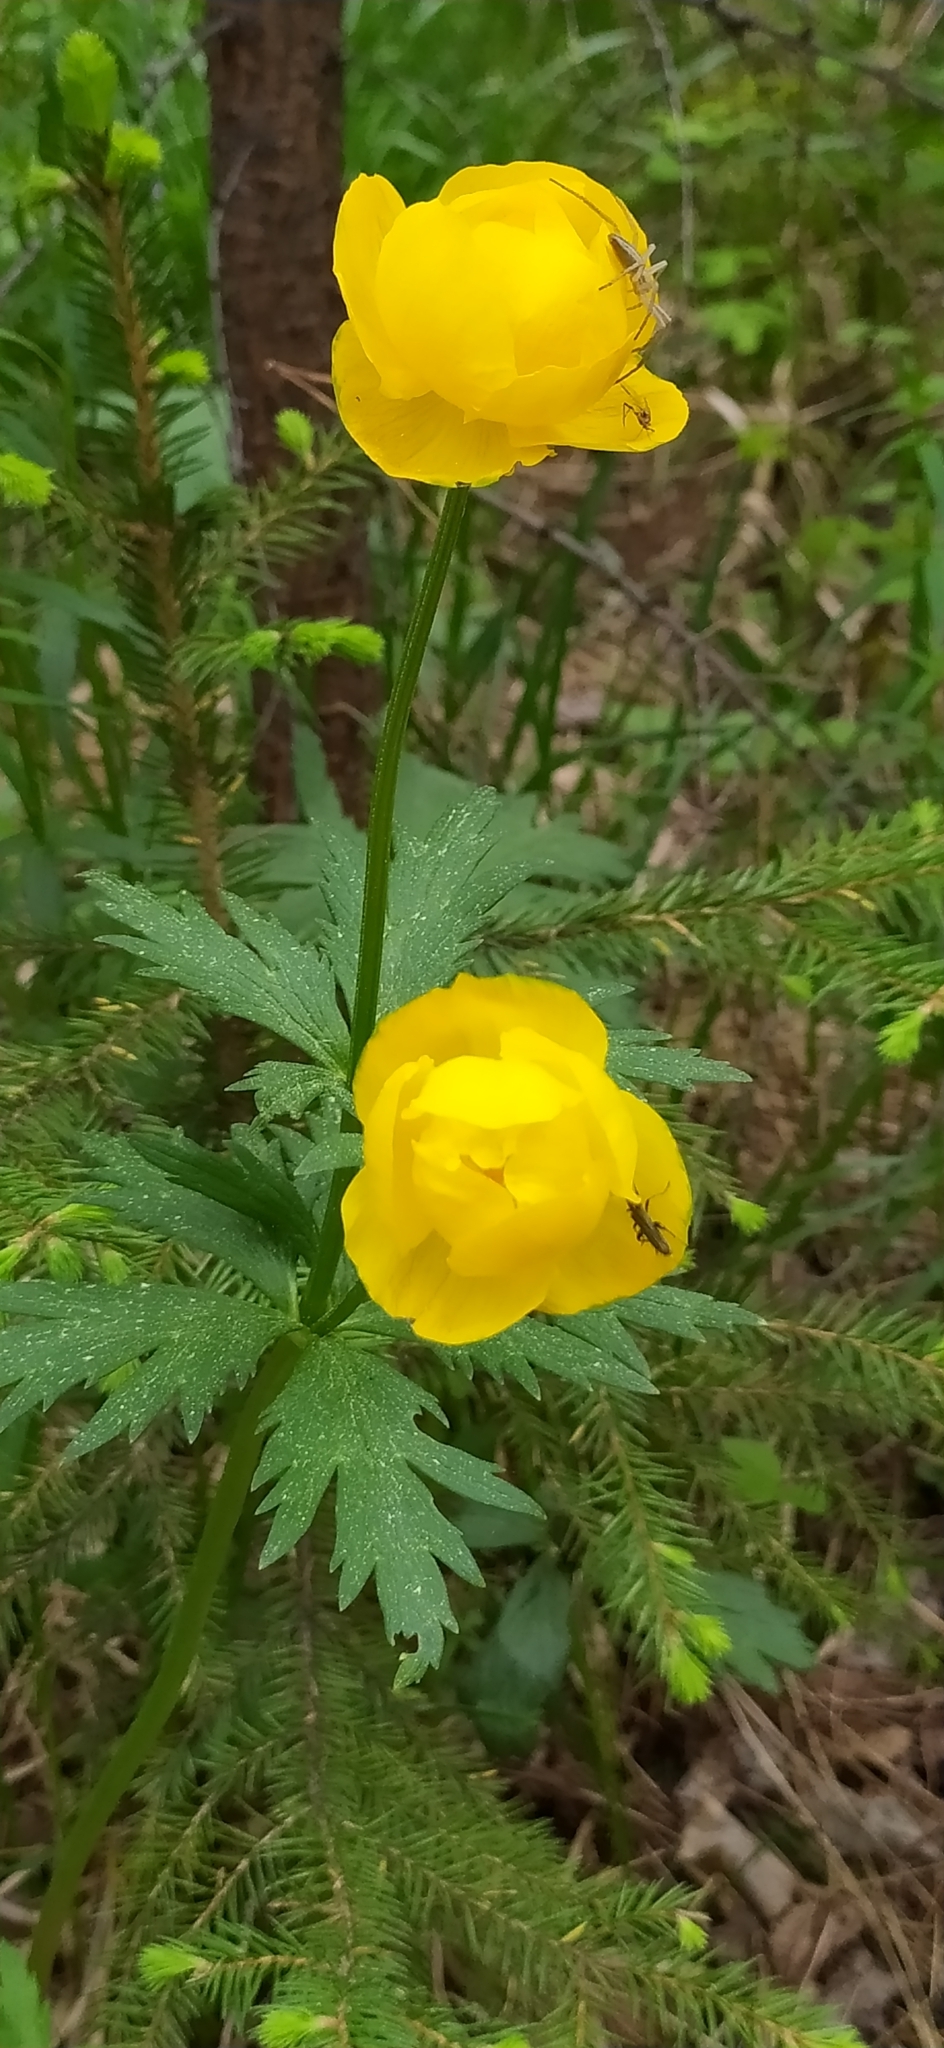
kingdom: Plantae
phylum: Tracheophyta
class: Magnoliopsida
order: Ranunculales
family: Ranunculaceae
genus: Trollius
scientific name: Trollius europaeus
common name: European globeflower
